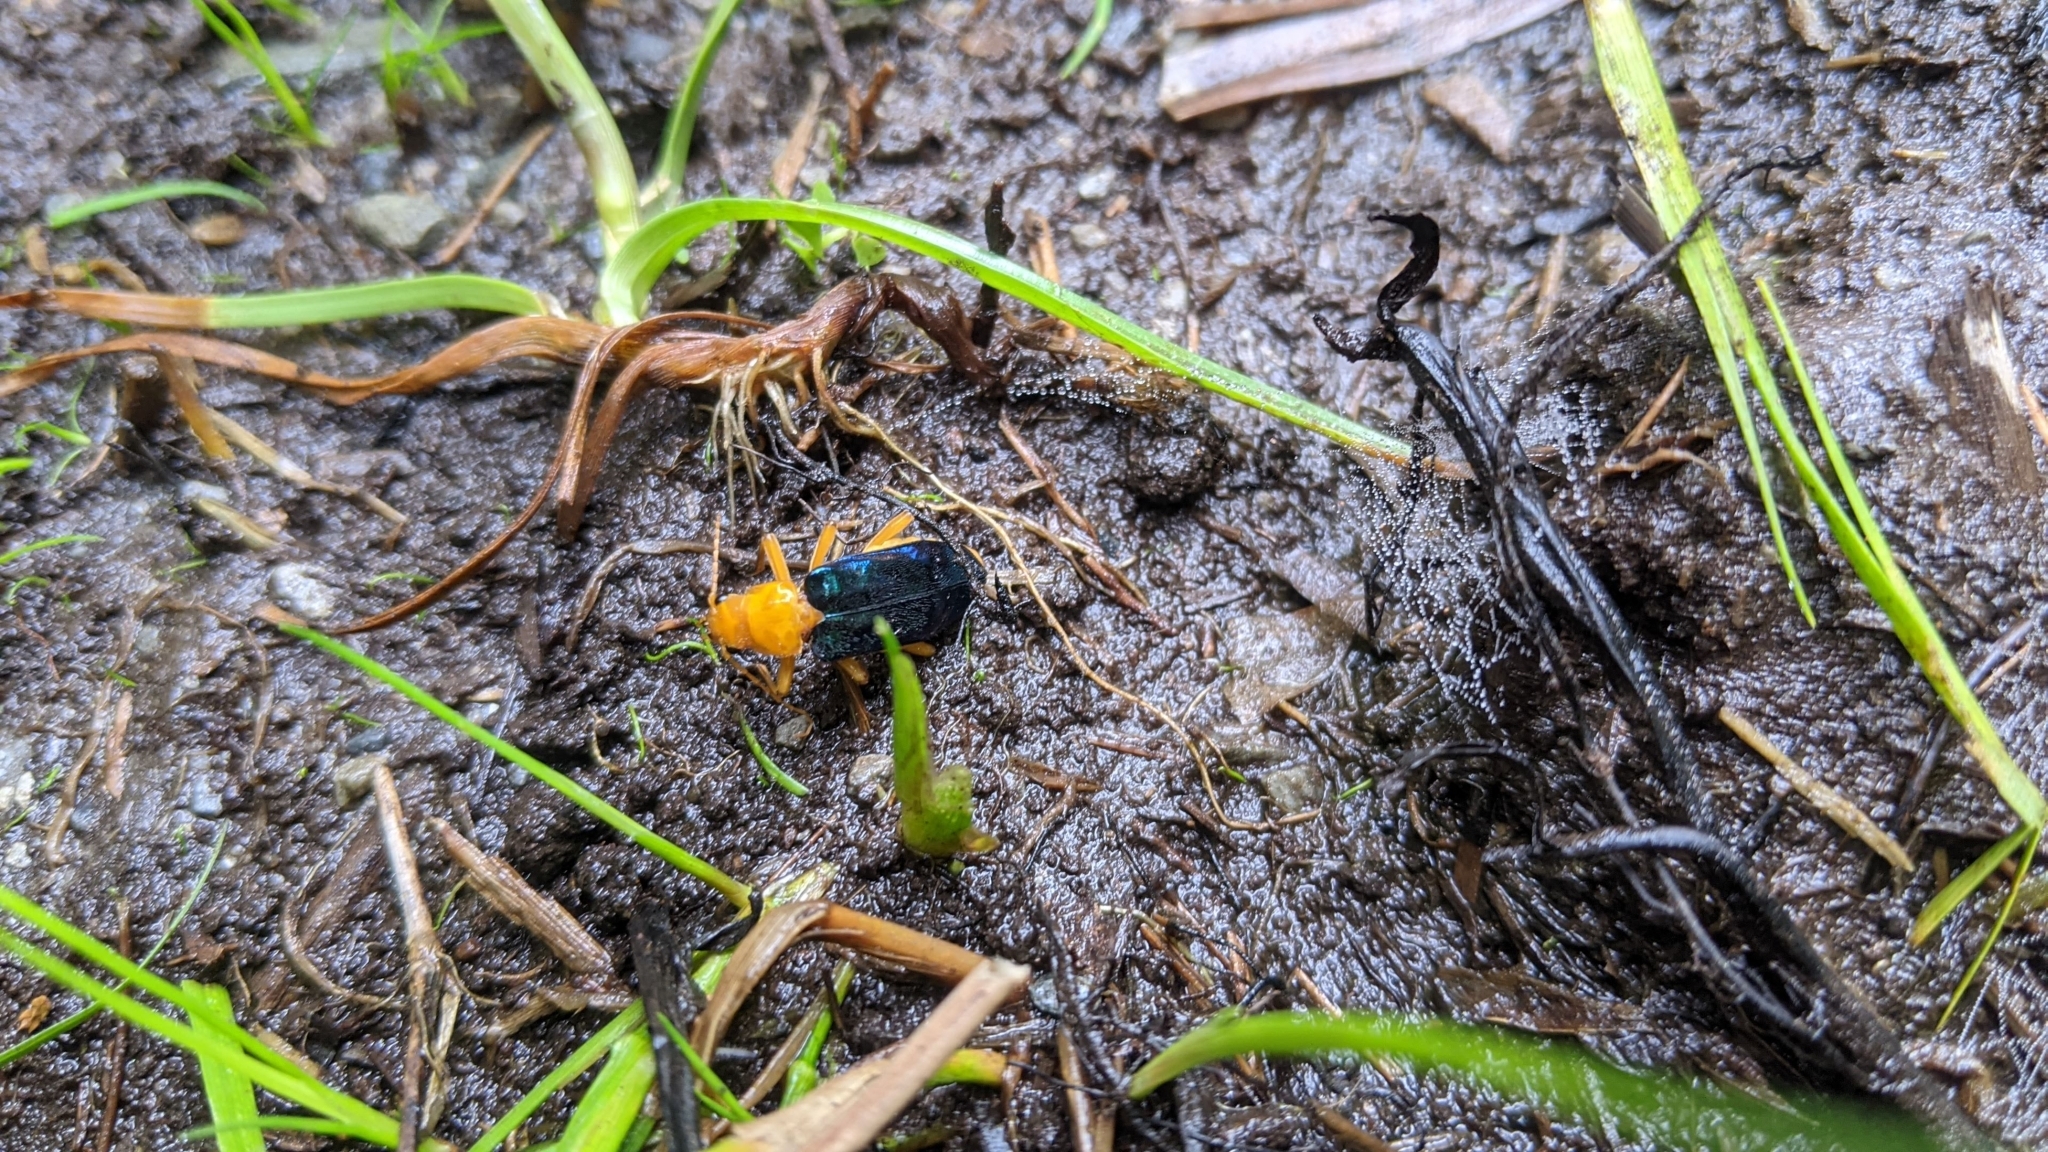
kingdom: Animalia
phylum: Arthropoda
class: Insecta
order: Coleoptera
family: Cantharidae
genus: Themus
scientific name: Themus sauteri
